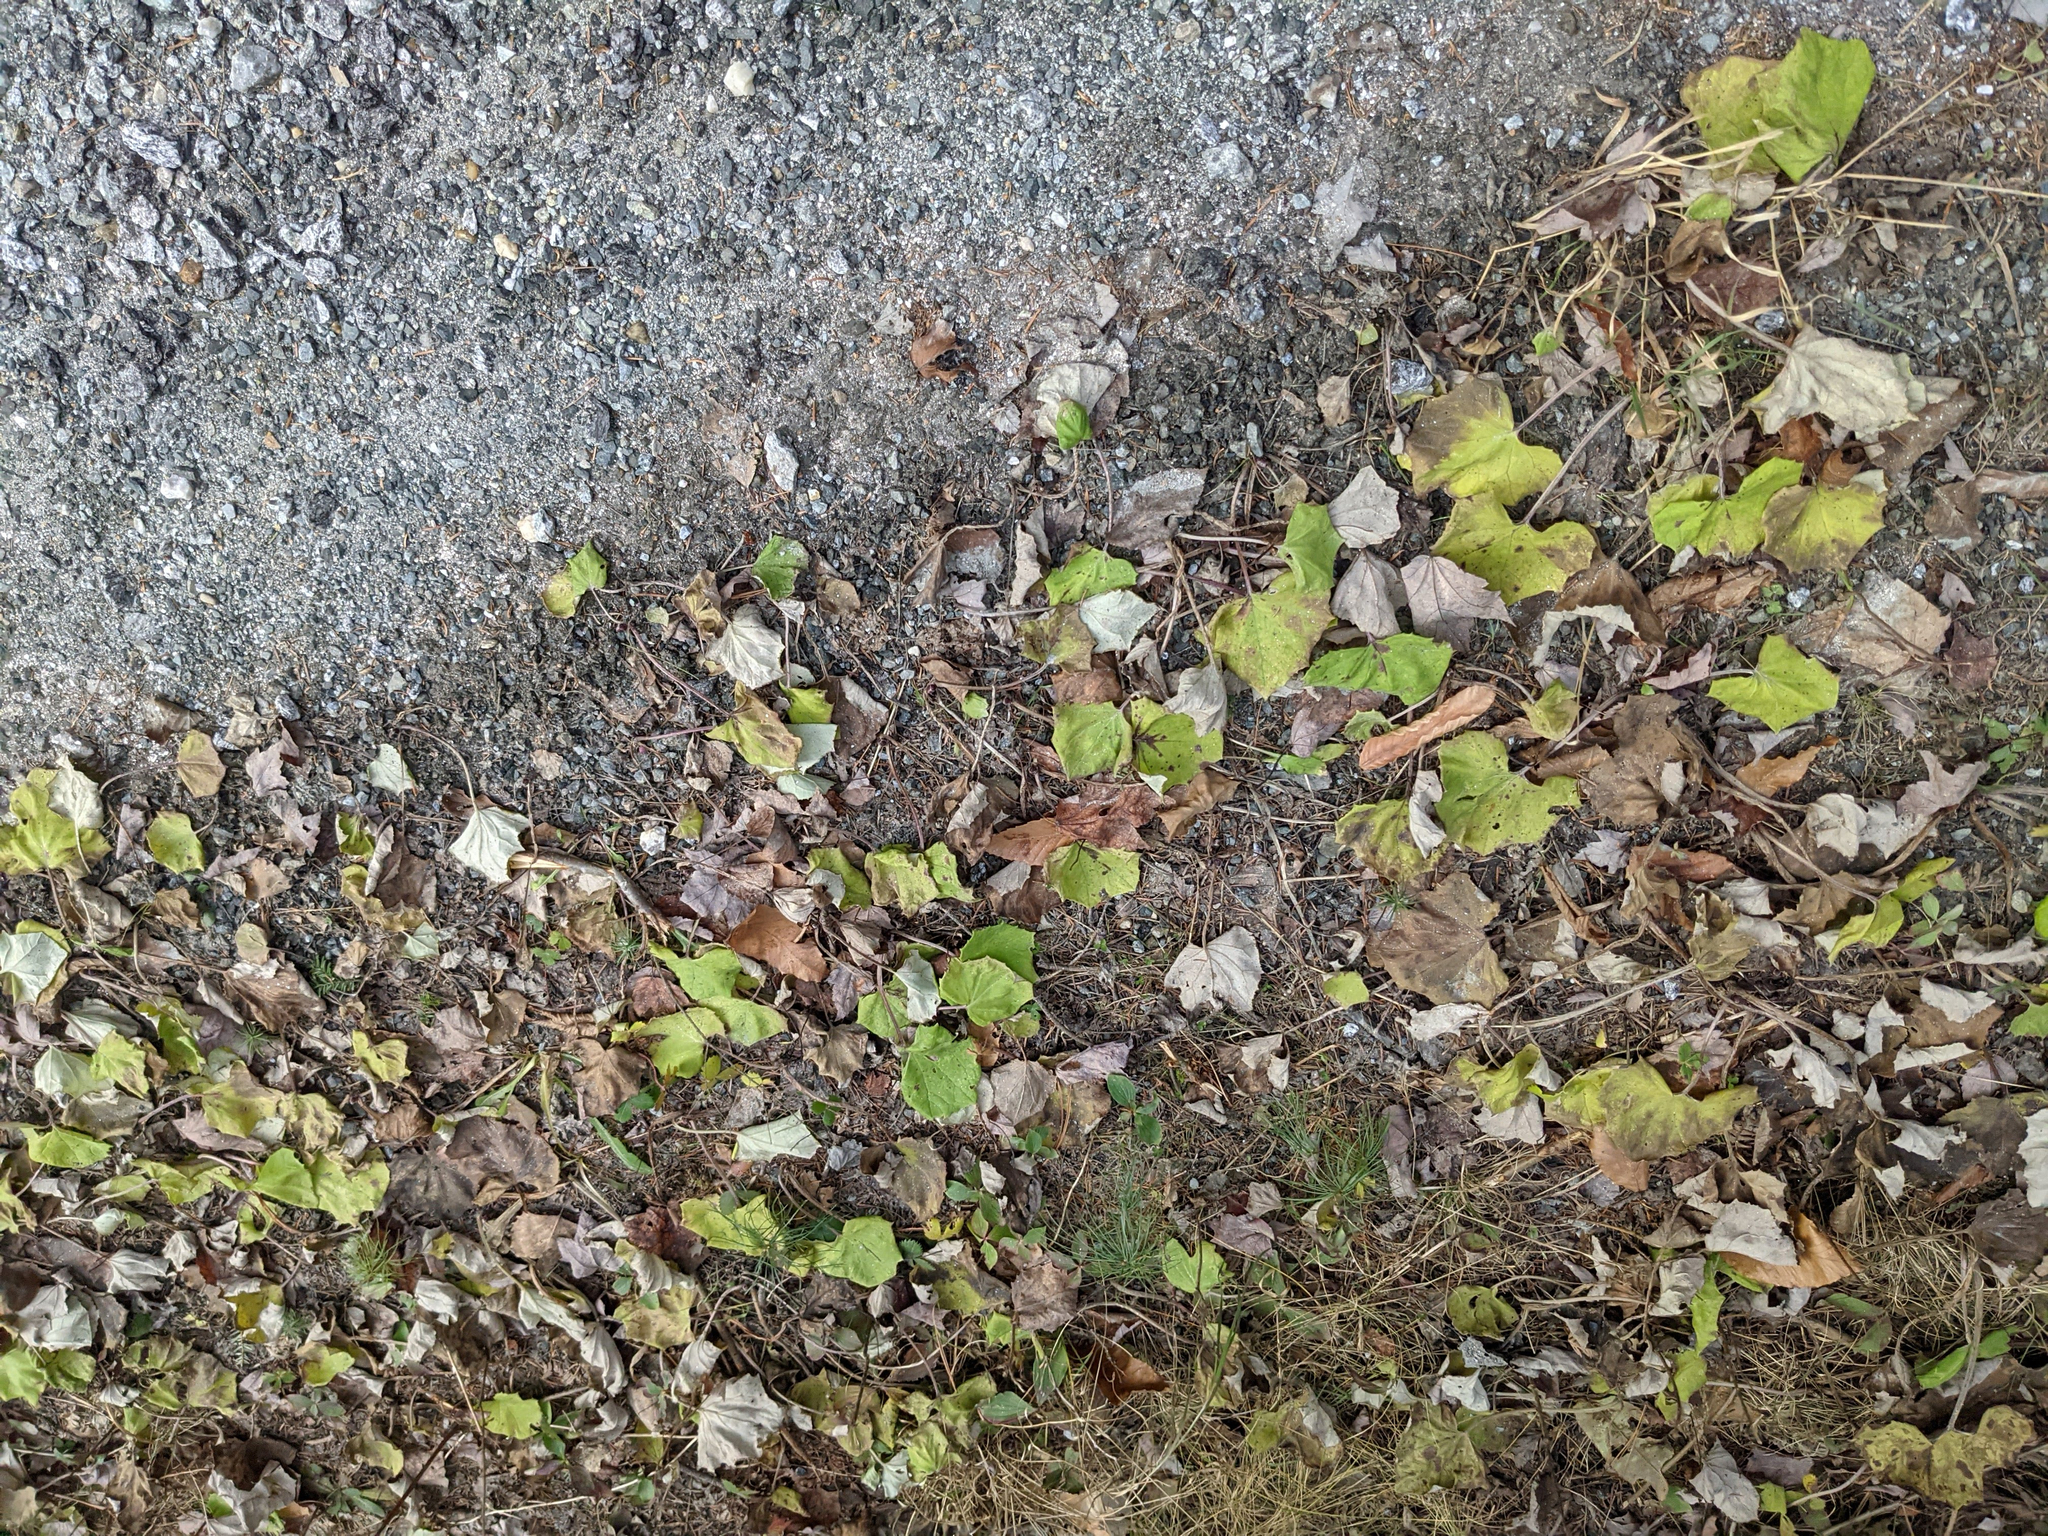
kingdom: Plantae
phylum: Tracheophyta
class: Magnoliopsida
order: Asterales
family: Asteraceae
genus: Tussilago
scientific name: Tussilago farfara
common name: Coltsfoot
